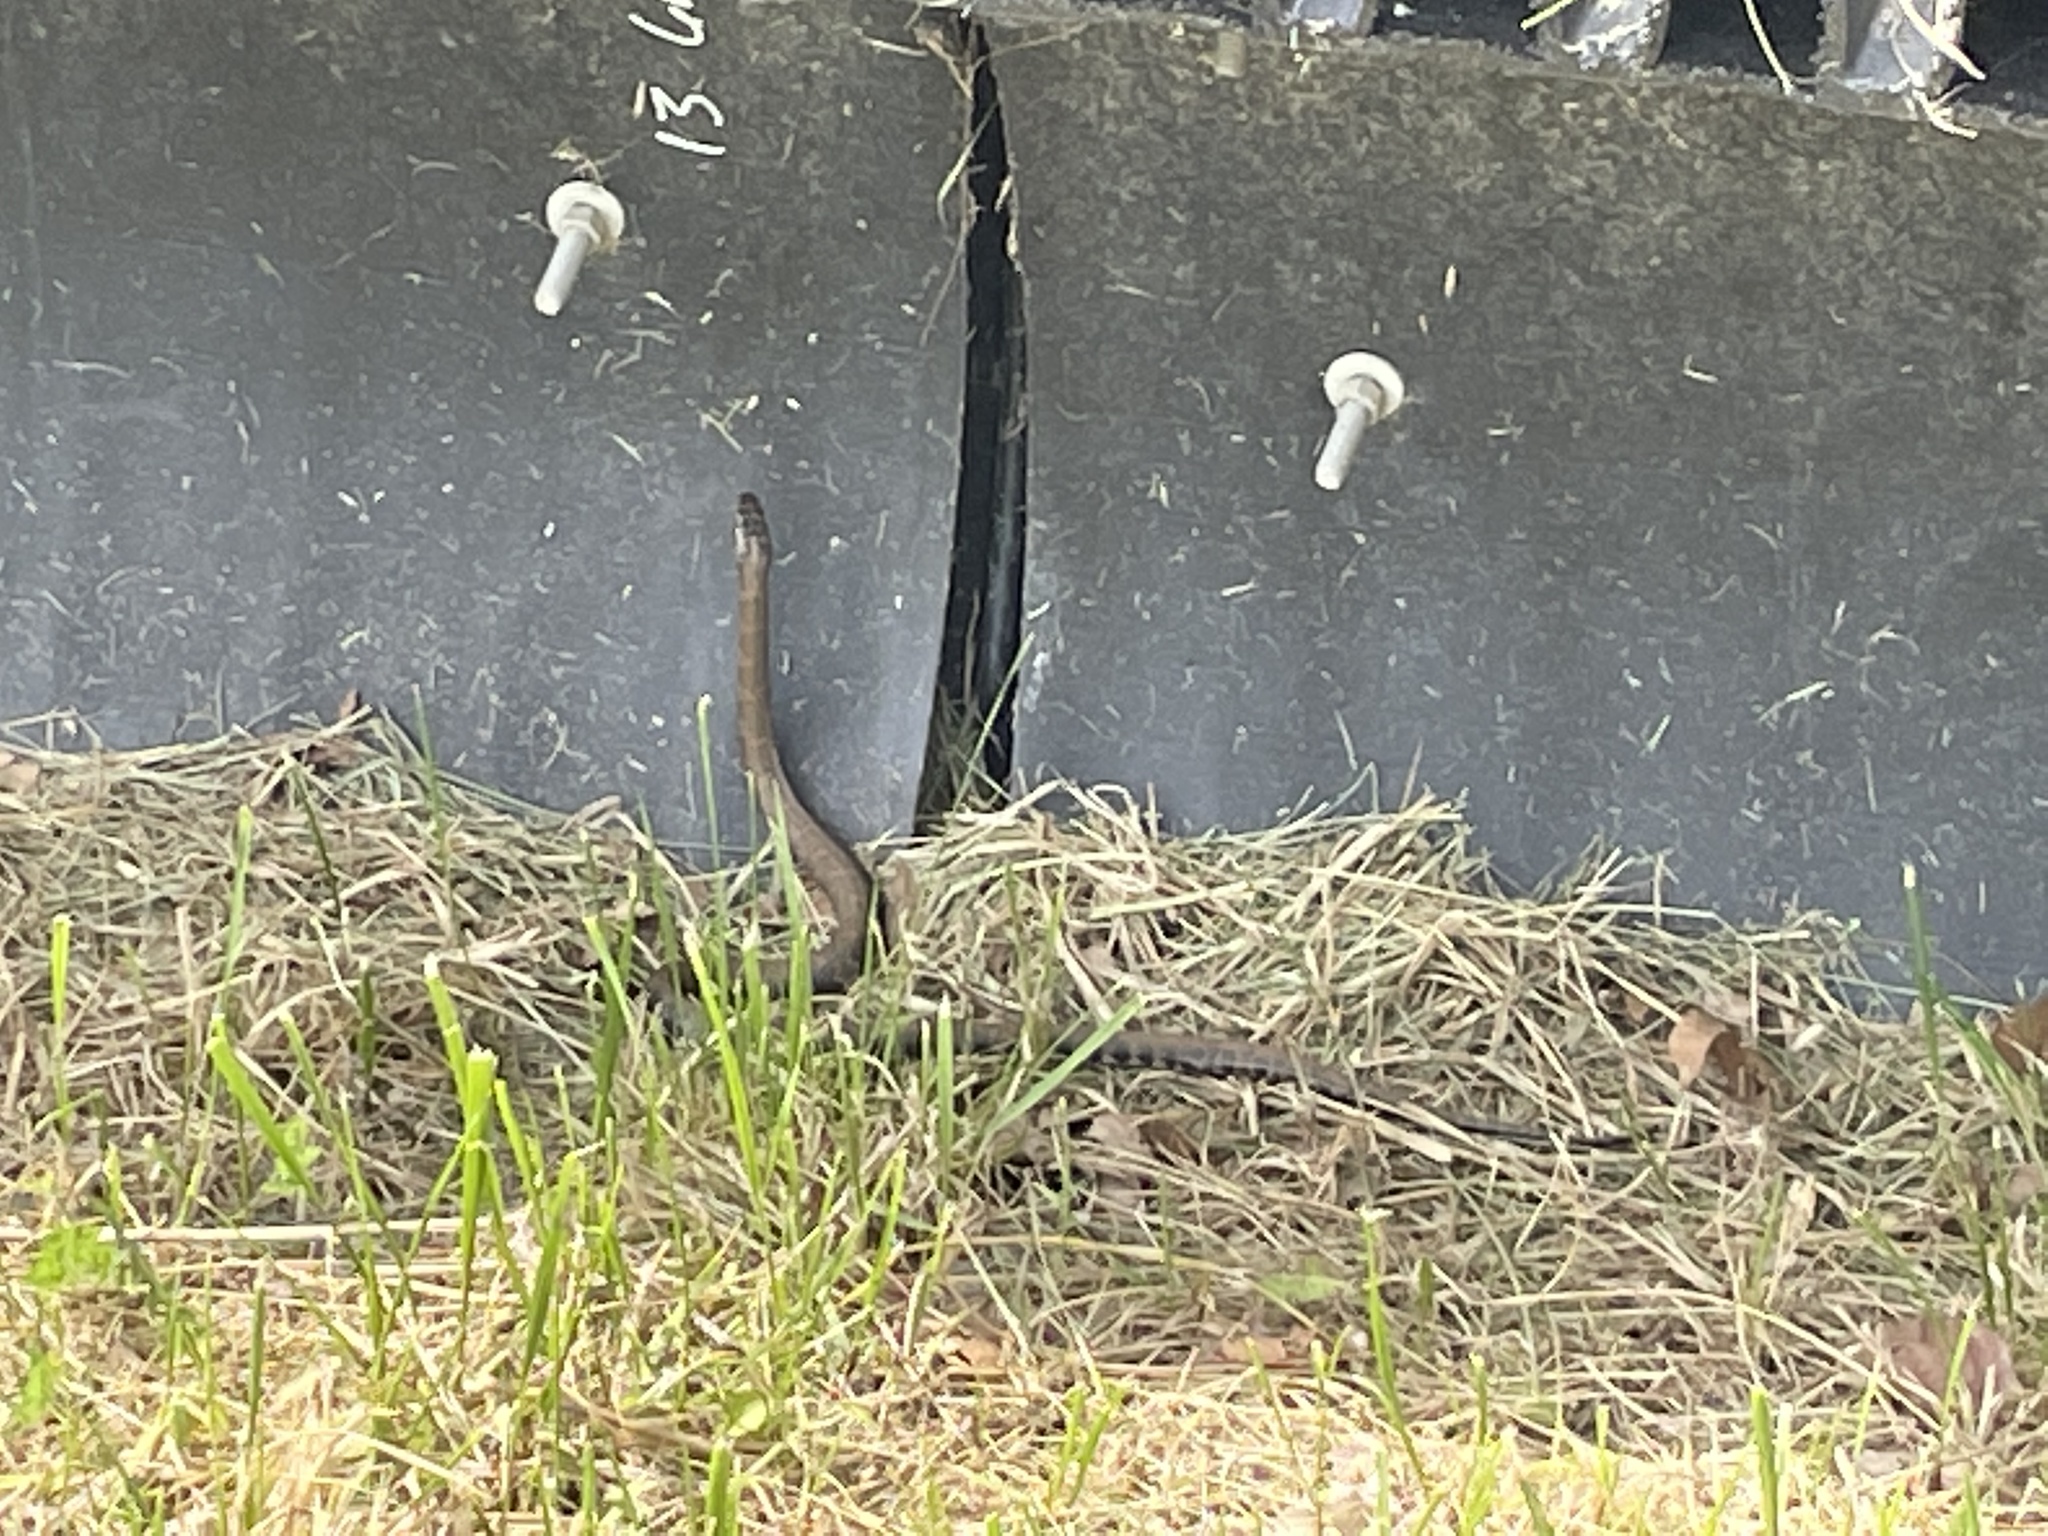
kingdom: Animalia
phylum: Chordata
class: Squamata
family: Colubridae
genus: Nerodia
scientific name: Nerodia sipedon
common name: Northern water snake
